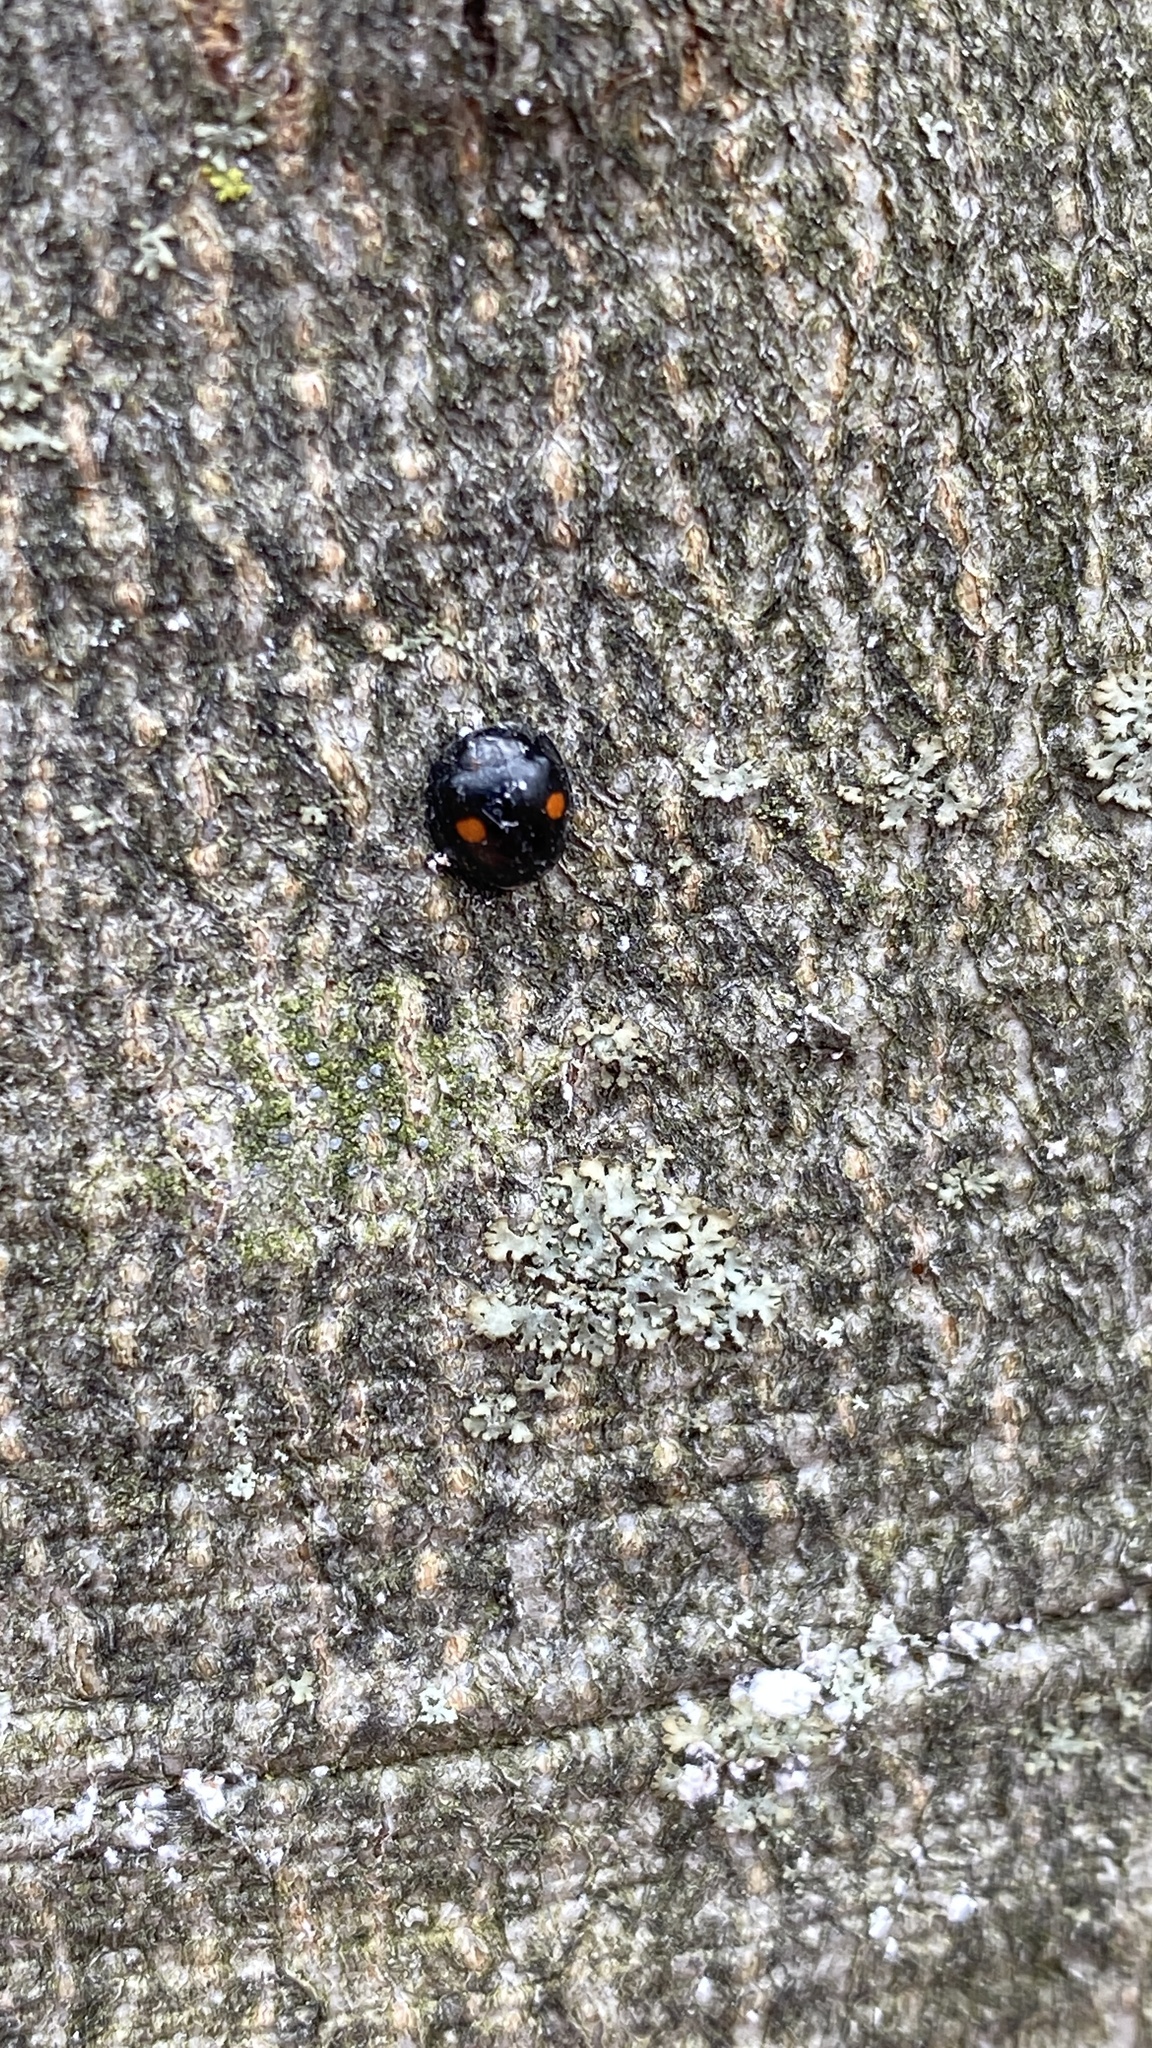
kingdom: Animalia
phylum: Arthropoda
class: Insecta
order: Coleoptera
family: Coccinellidae
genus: Chilocorus
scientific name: Chilocorus stigma
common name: Twicestabbed lady beetle
